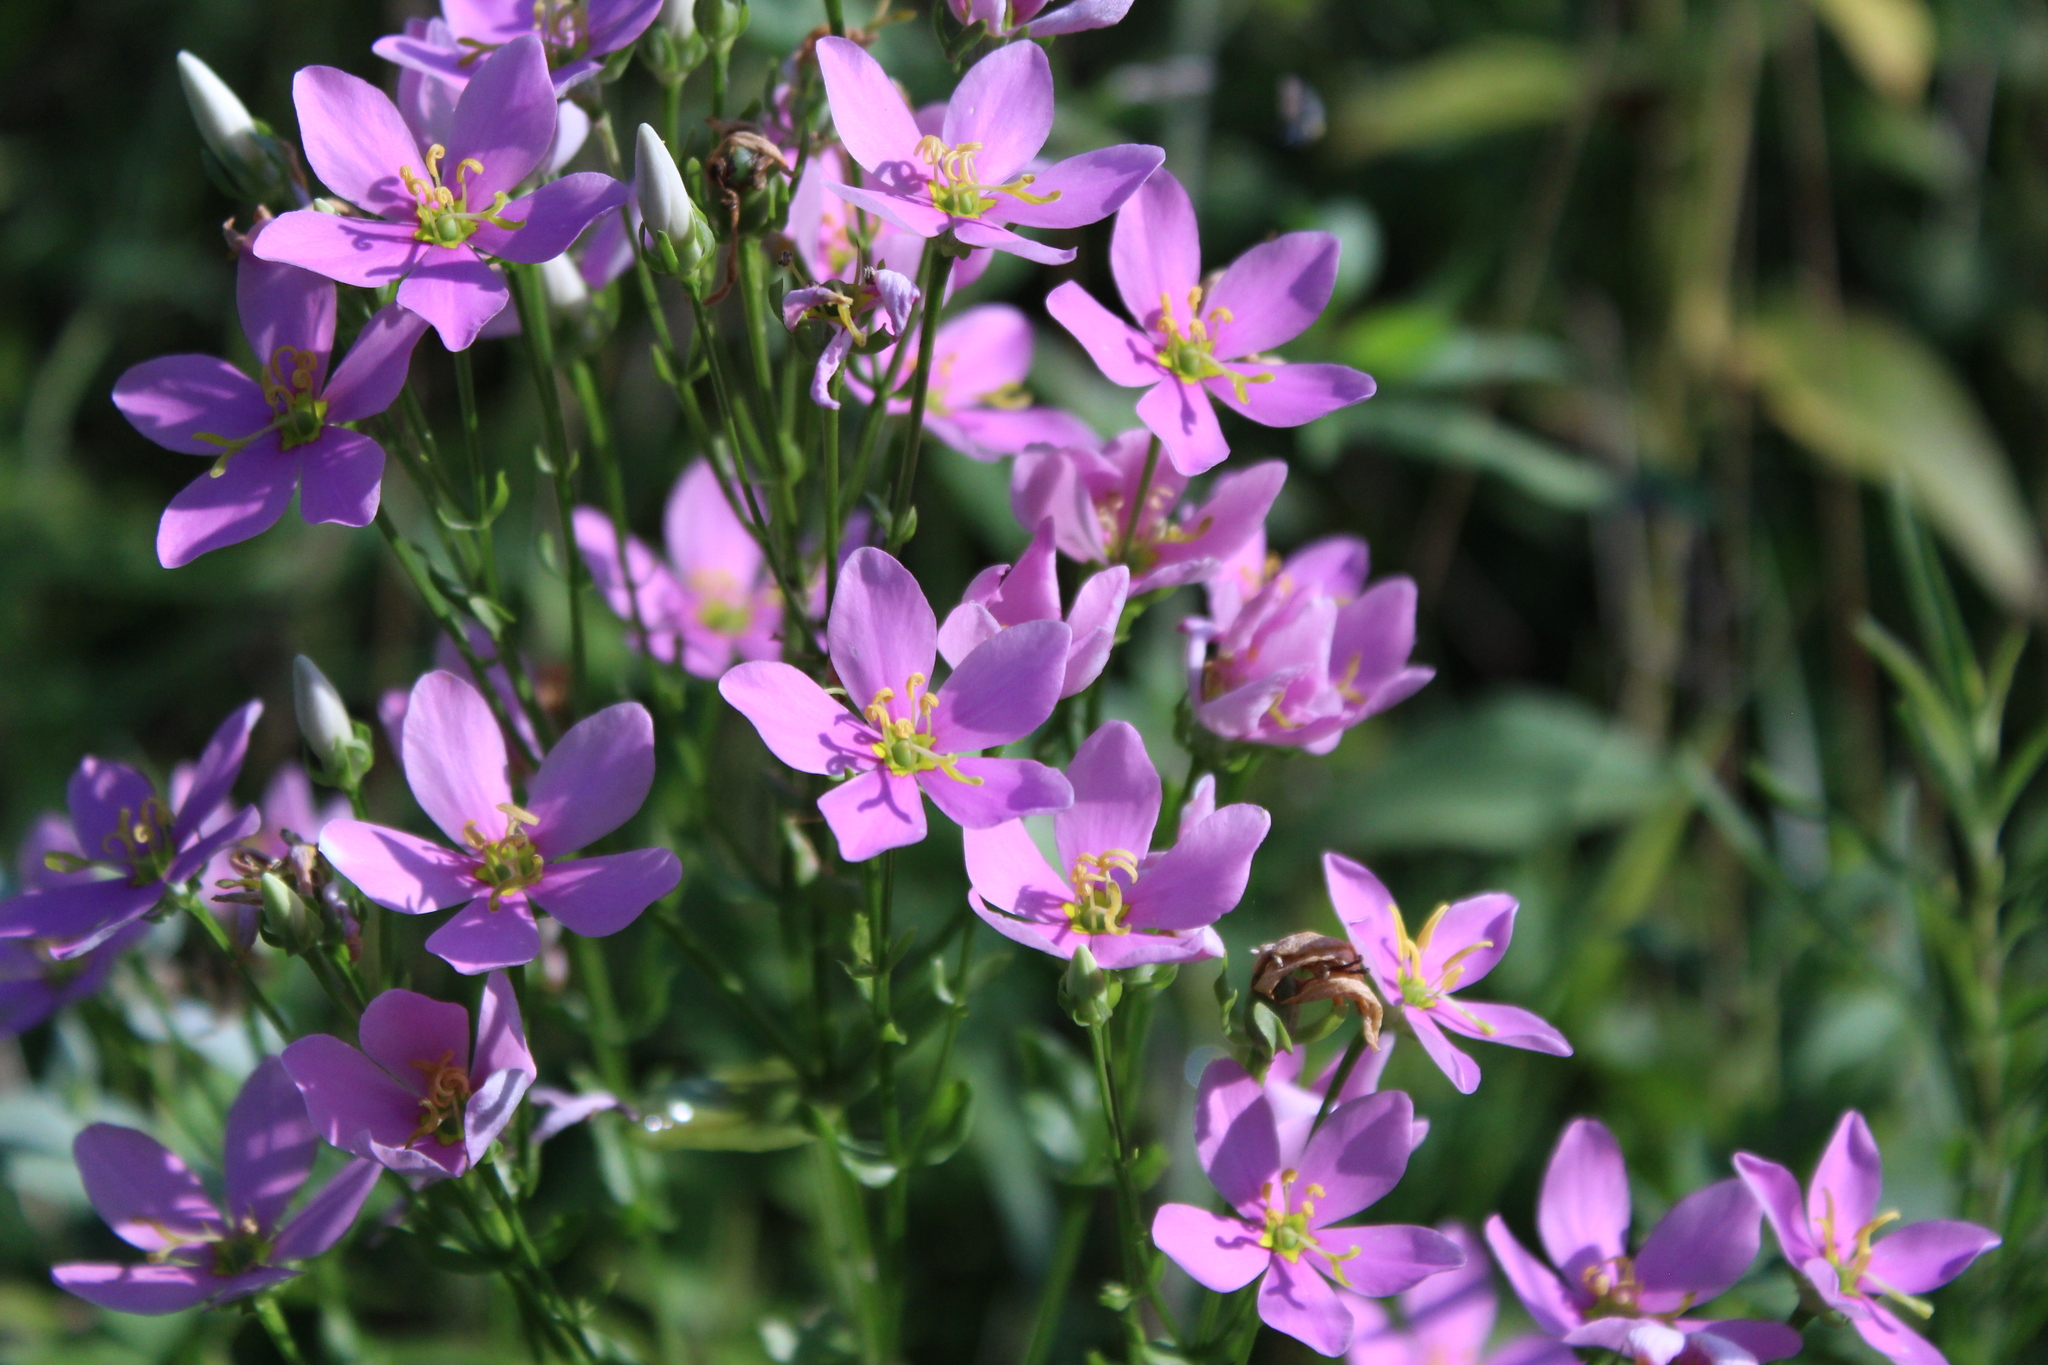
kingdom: Plantae
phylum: Tracheophyta
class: Magnoliopsida
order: Gentianales
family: Gentianaceae
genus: Sabatia
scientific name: Sabatia angularis
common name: Rose-pink
